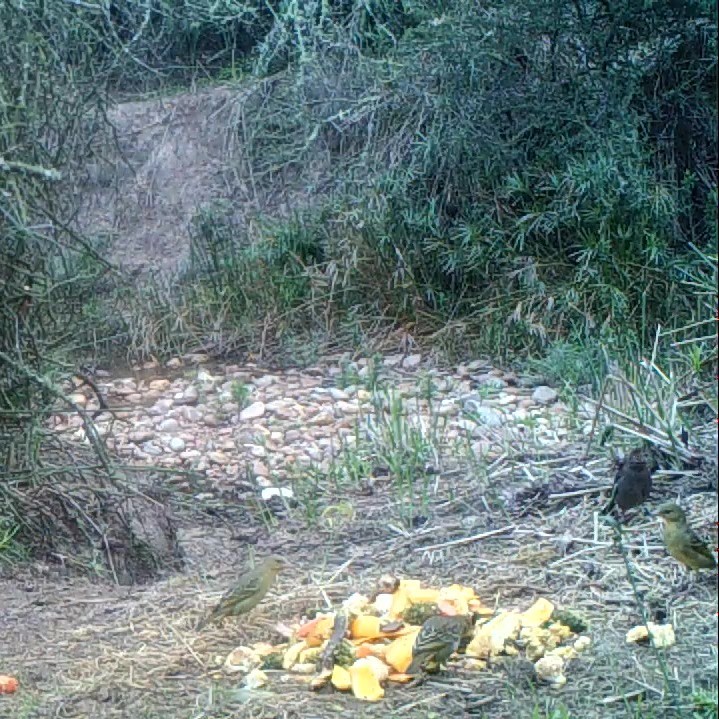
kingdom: Animalia
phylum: Chordata
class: Aves
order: Passeriformes
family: Ploceidae
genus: Ploceus
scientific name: Ploceus capensis
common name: Cape weaver
